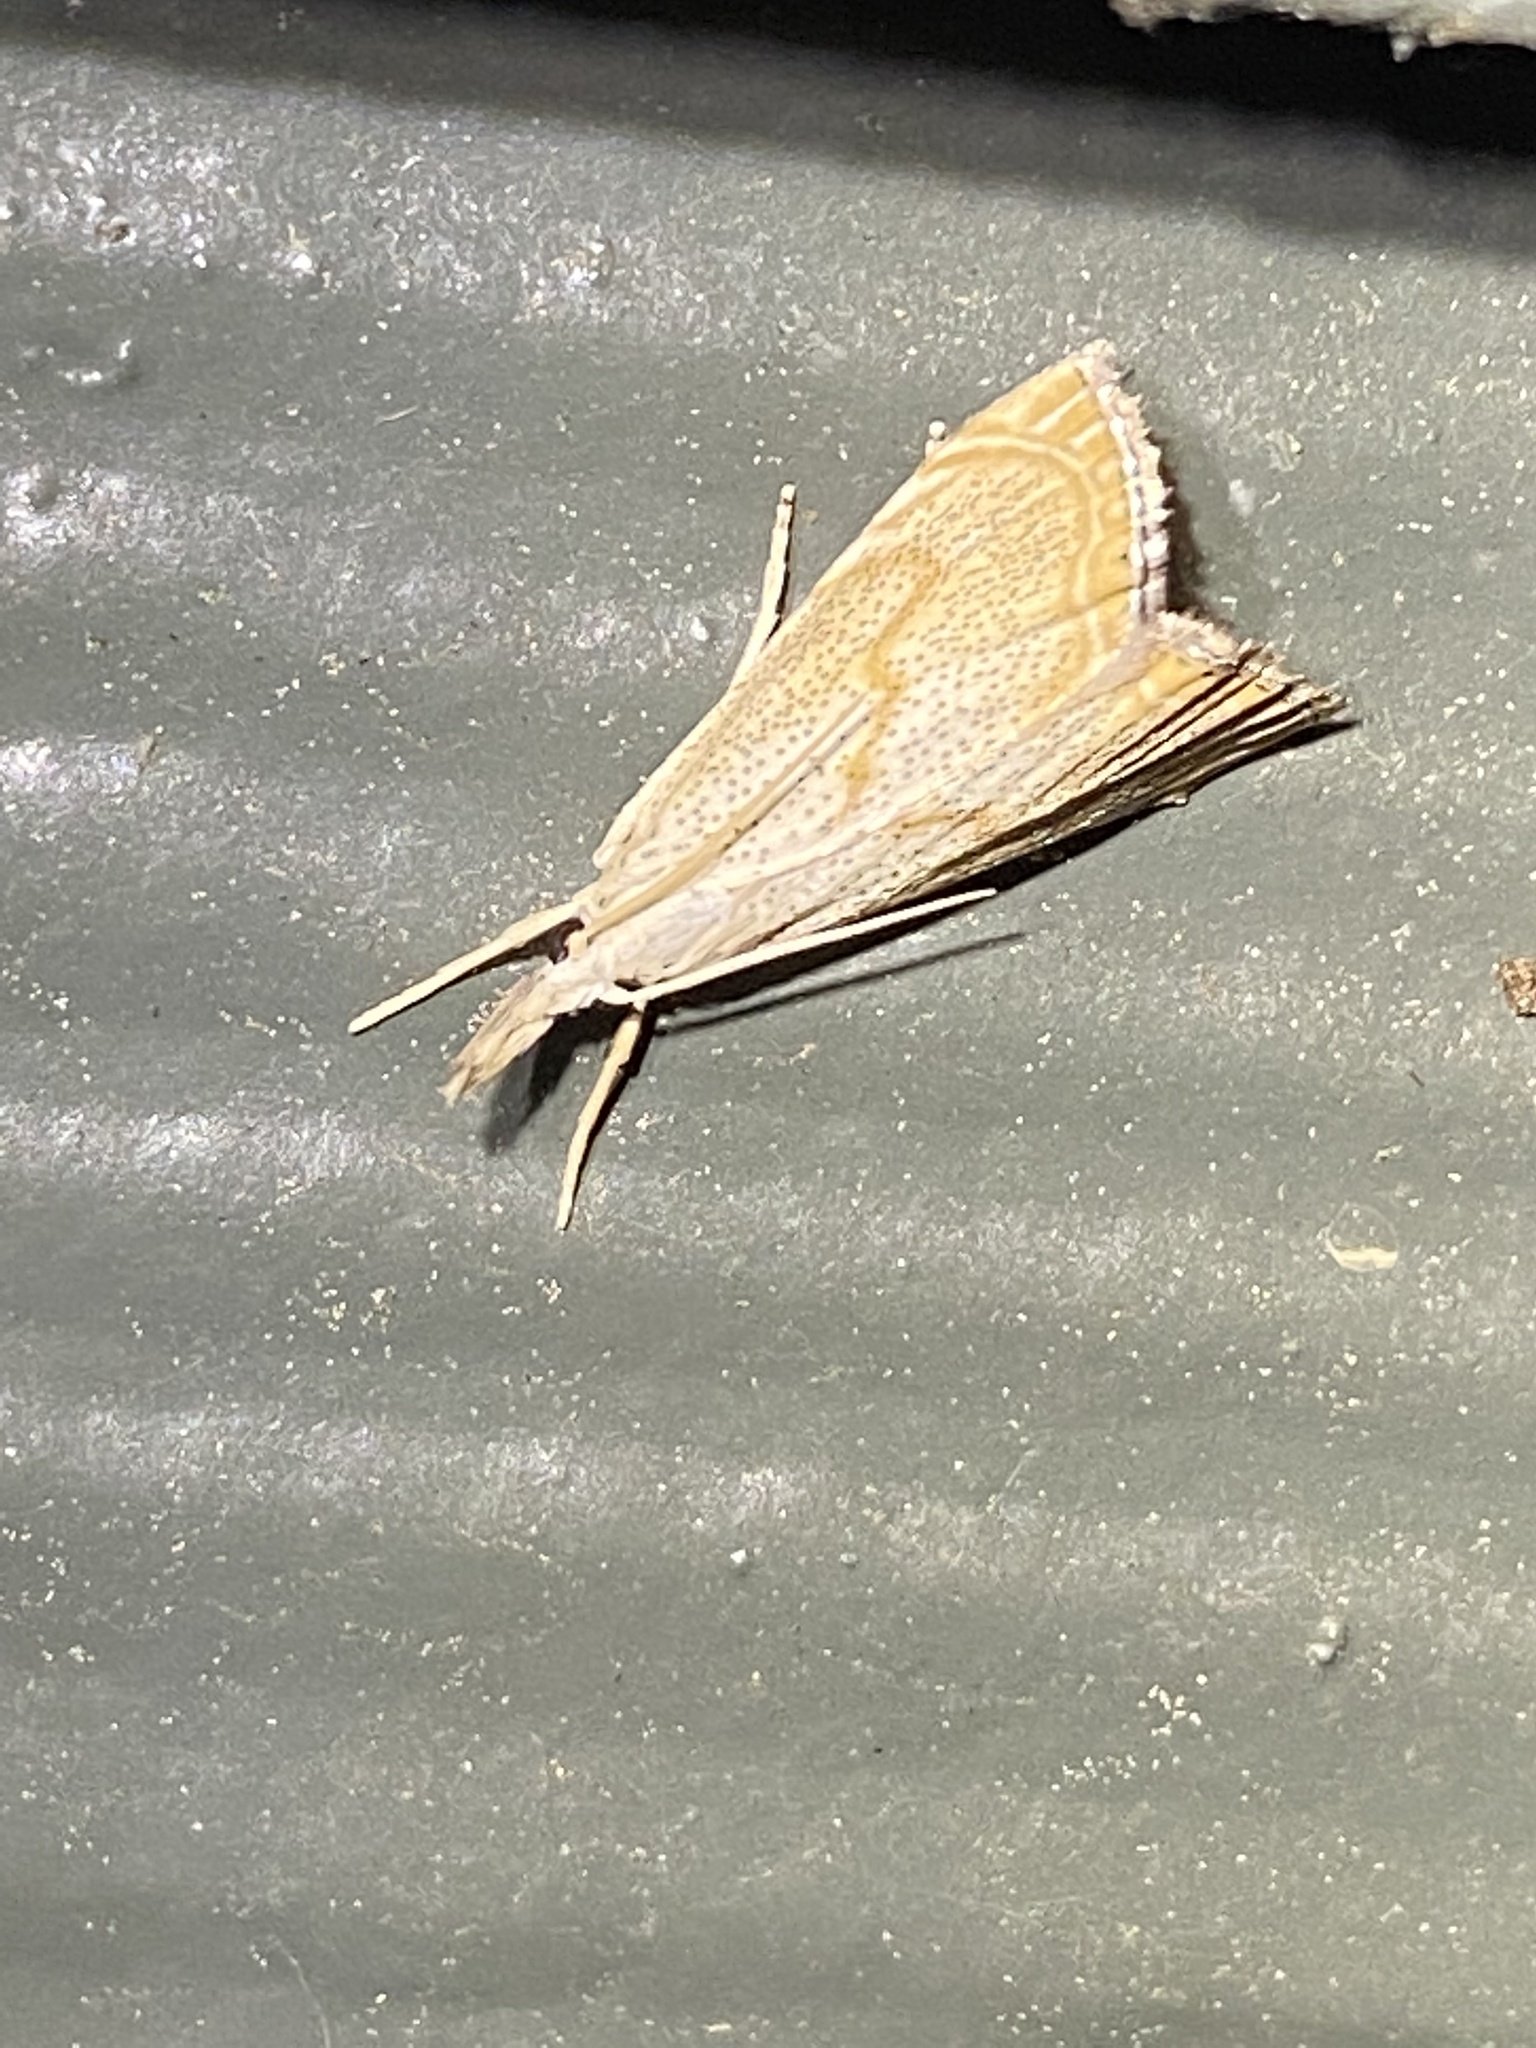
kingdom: Animalia
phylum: Arthropoda
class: Insecta
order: Lepidoptera
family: Crambidae
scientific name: Crambidae
